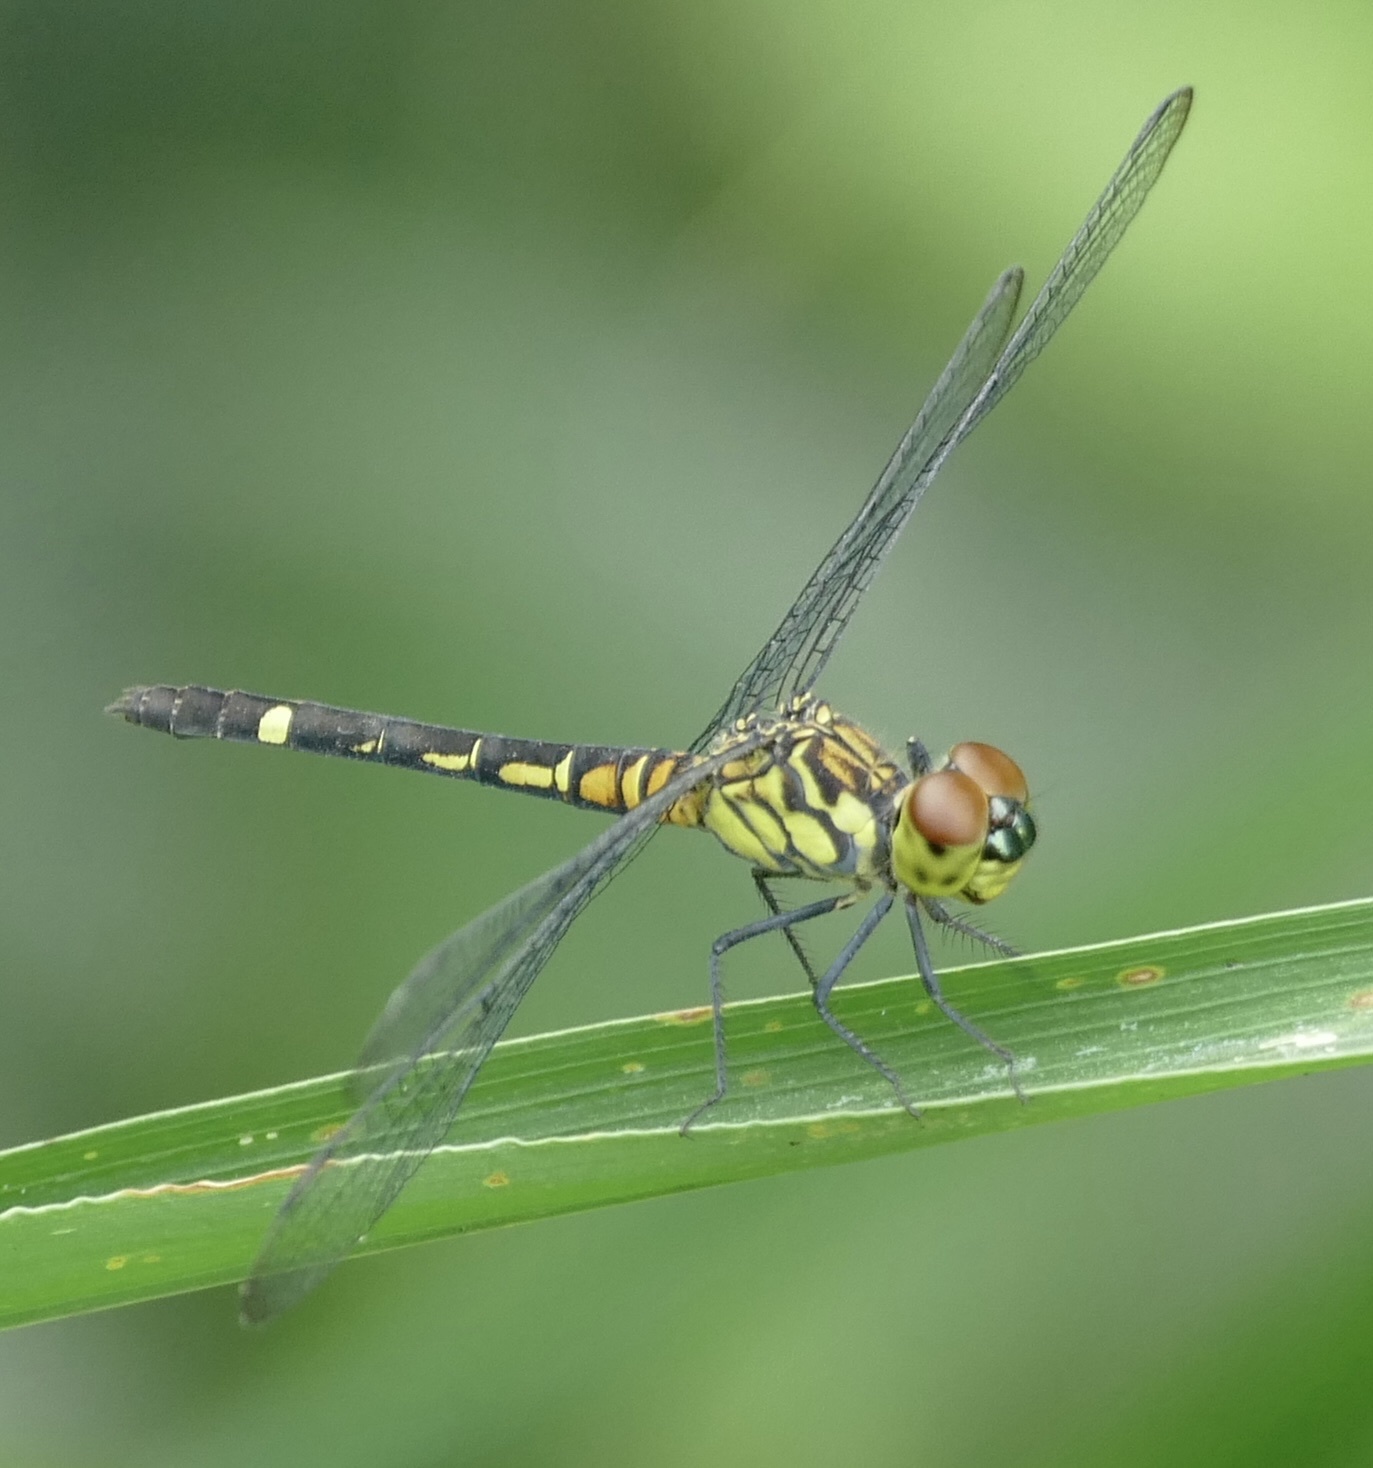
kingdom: Animalia
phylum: Arthropoda
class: Insecta
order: Odonata
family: Libellulidae
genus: Chalcostephia
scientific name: Chalcostephia flavifrons
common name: Inspector
